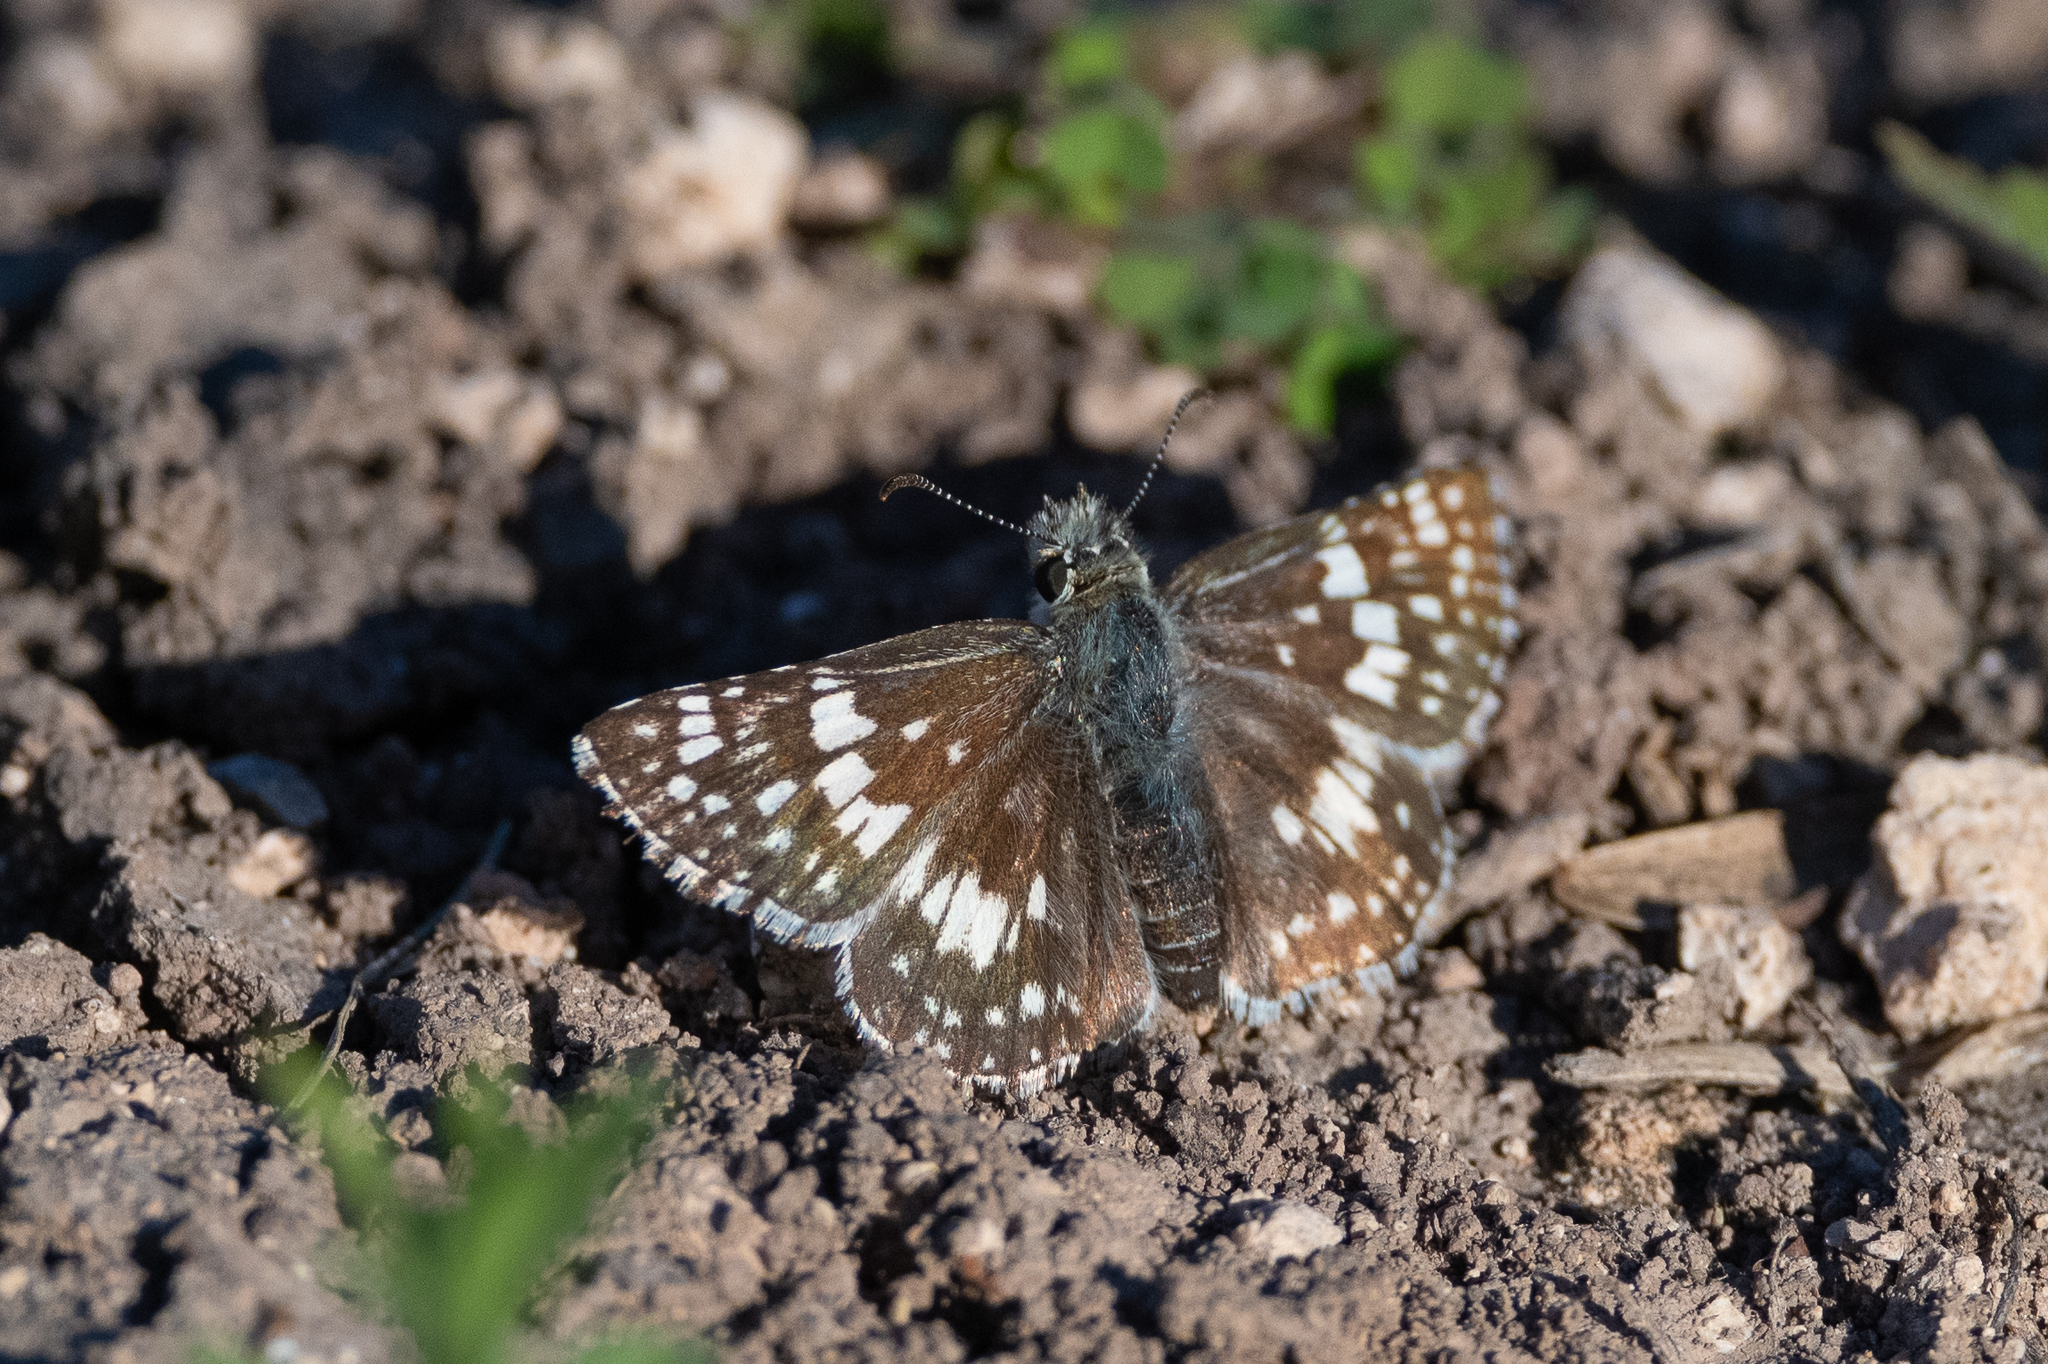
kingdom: Animalia
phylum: Arthropoda
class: Insecta
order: Lepidoptera
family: Hesperiidae
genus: Burnsius
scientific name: Burnsius albezens
